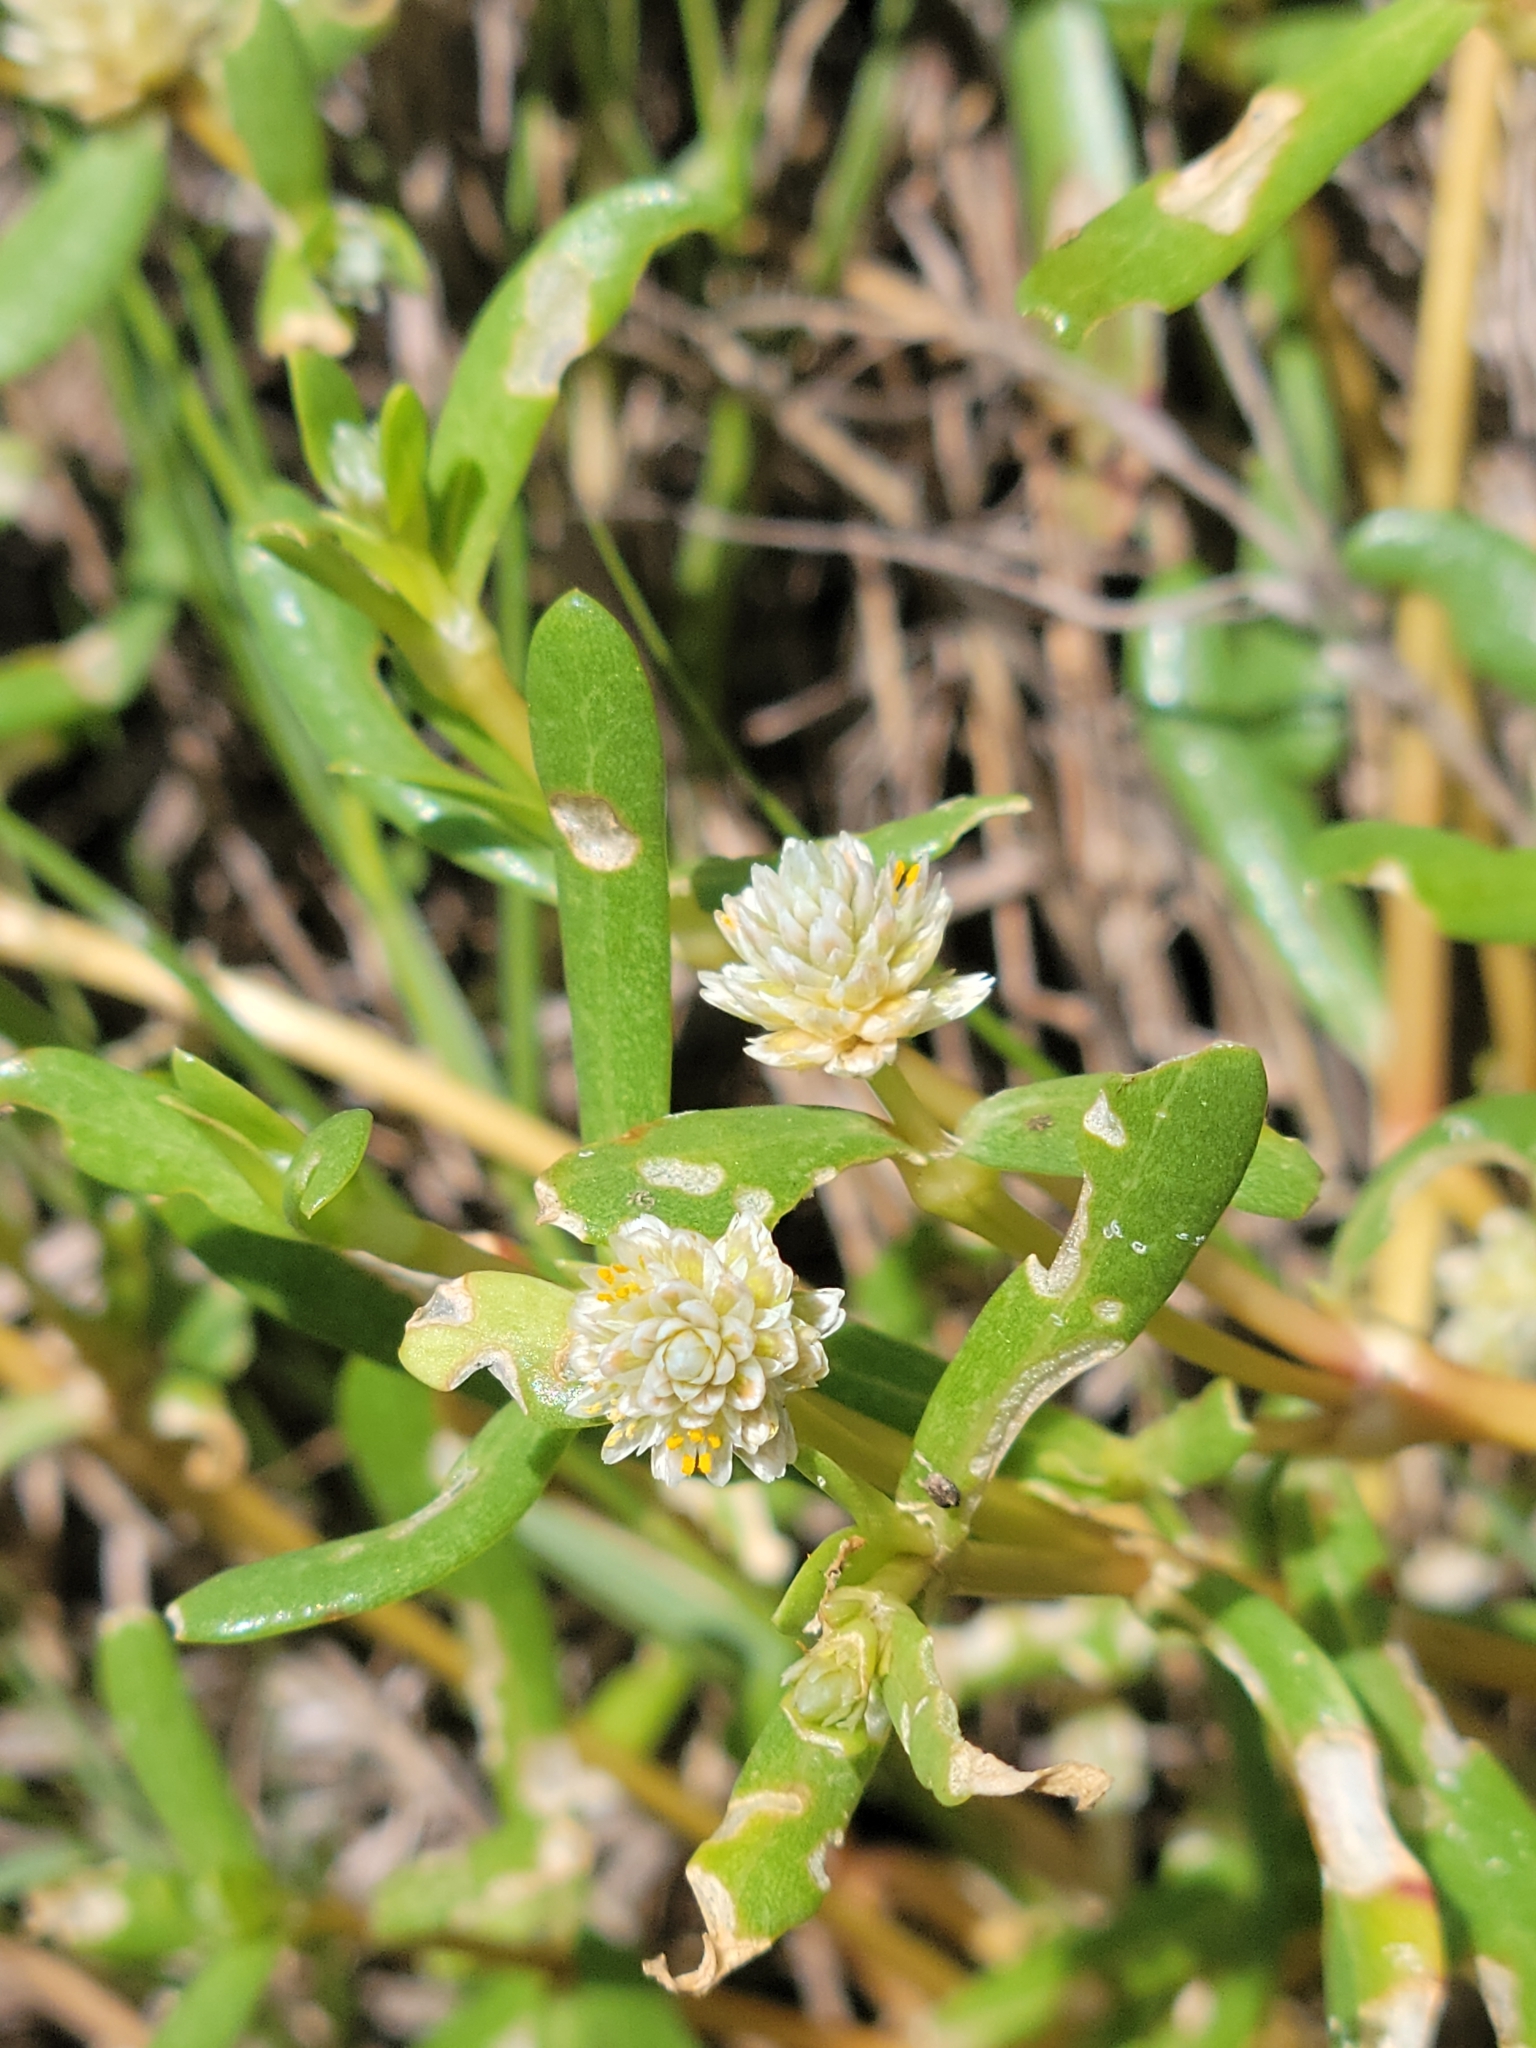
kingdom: Plantae
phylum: Tracheophyta
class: Magnoliopsida
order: Caryophyllales
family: Amaranthaceae
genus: Gomphrena
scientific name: Gomphrena vermicularis
